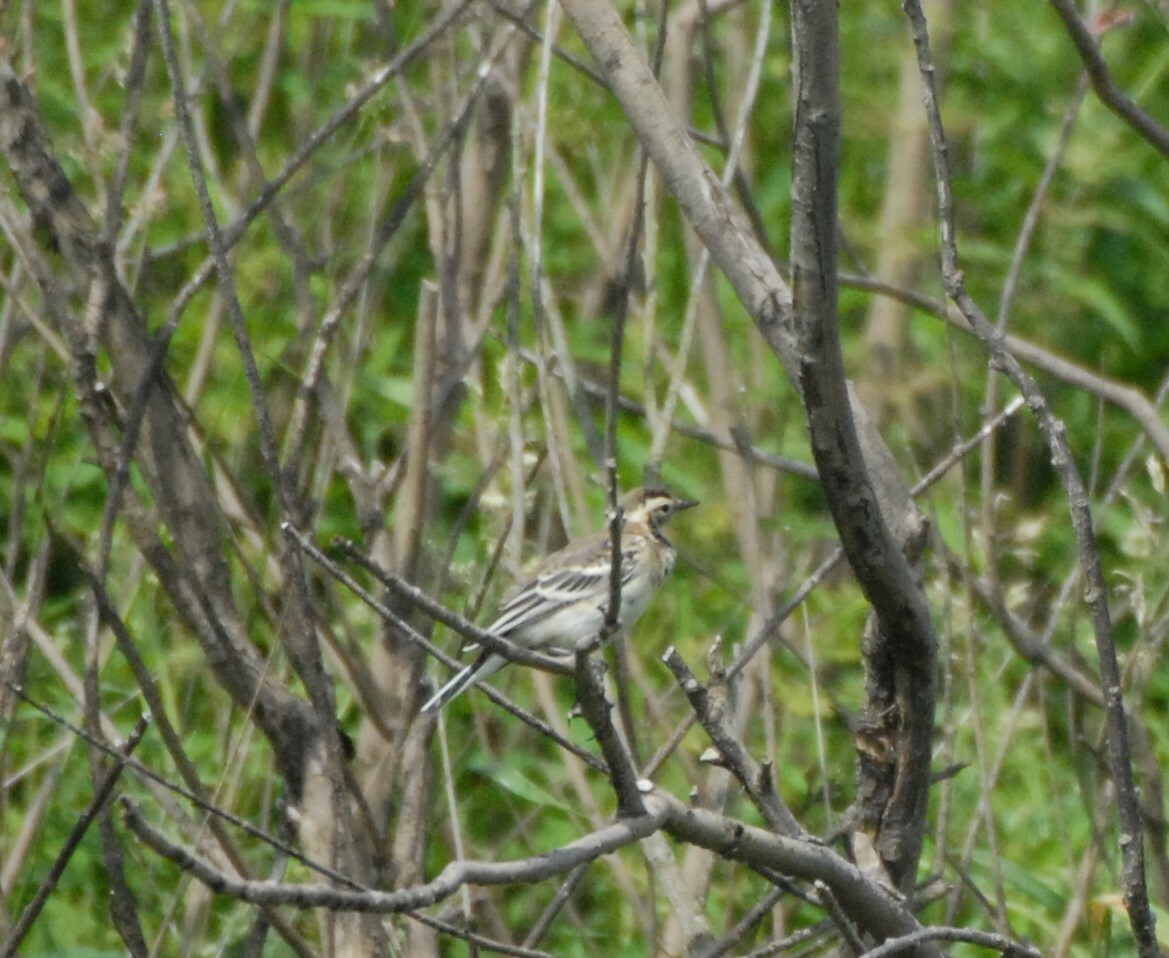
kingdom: Animalia
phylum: Chordata
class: Aves
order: Passeriformes
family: Motacillidae
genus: Motacilla
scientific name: Motacilla citreola
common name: Citrine wagtail
